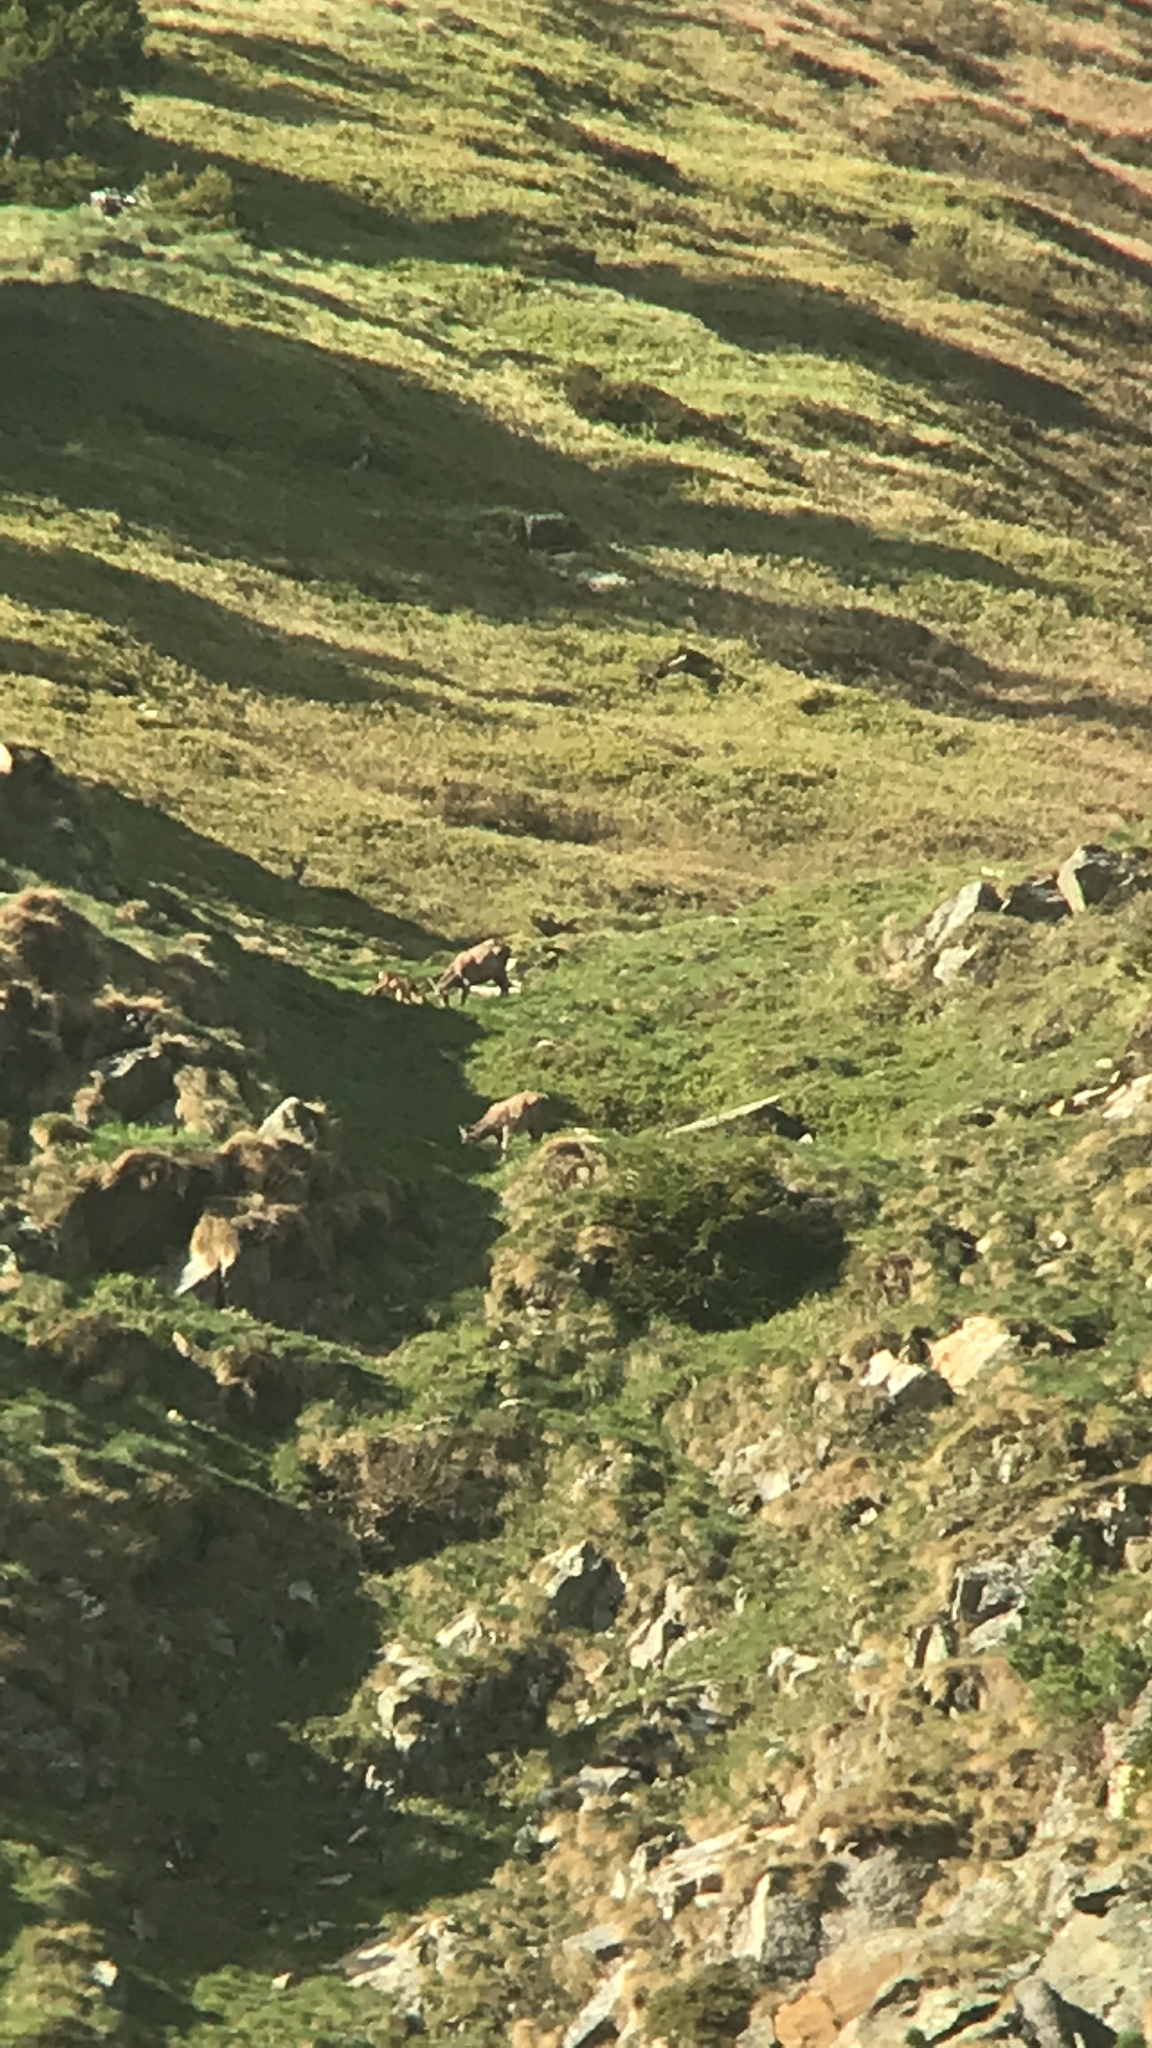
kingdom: Animalia
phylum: Chordata
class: Mammalia
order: Artiodactyla
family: Cervidae
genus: Cervus
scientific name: Cervus elaphus
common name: Red deer
